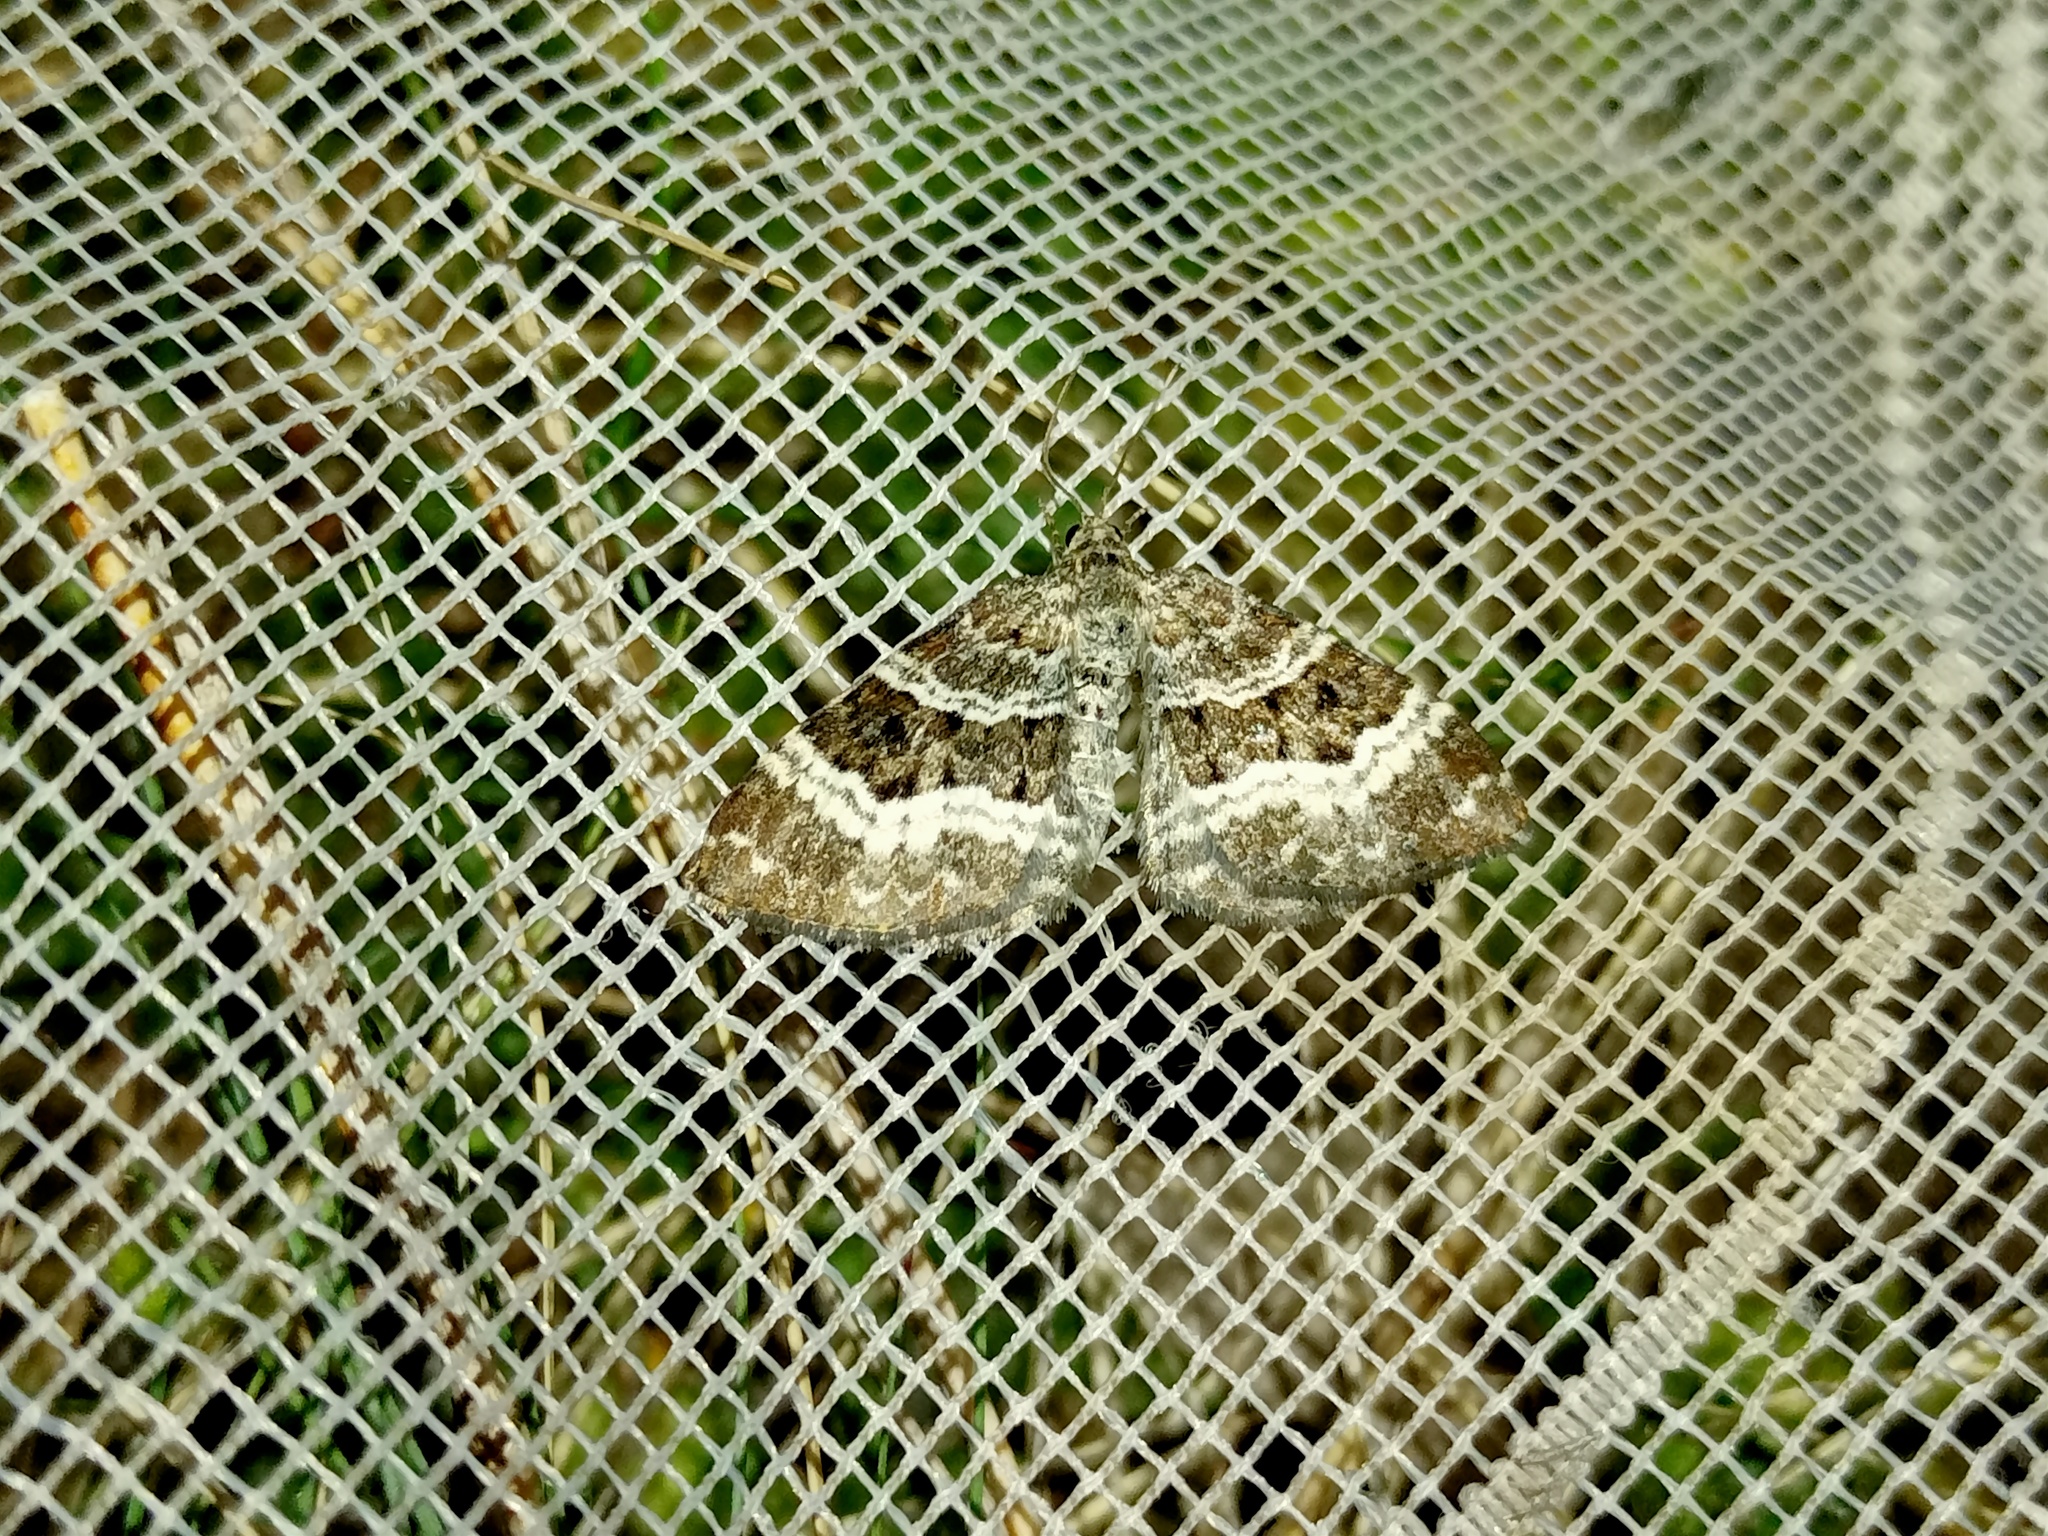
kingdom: Animalia
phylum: Arthropoda
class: Insecta
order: Lepidoptera
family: Geometridae
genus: Epirrhoe
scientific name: Epirrhoe alternata
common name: Common carpet
